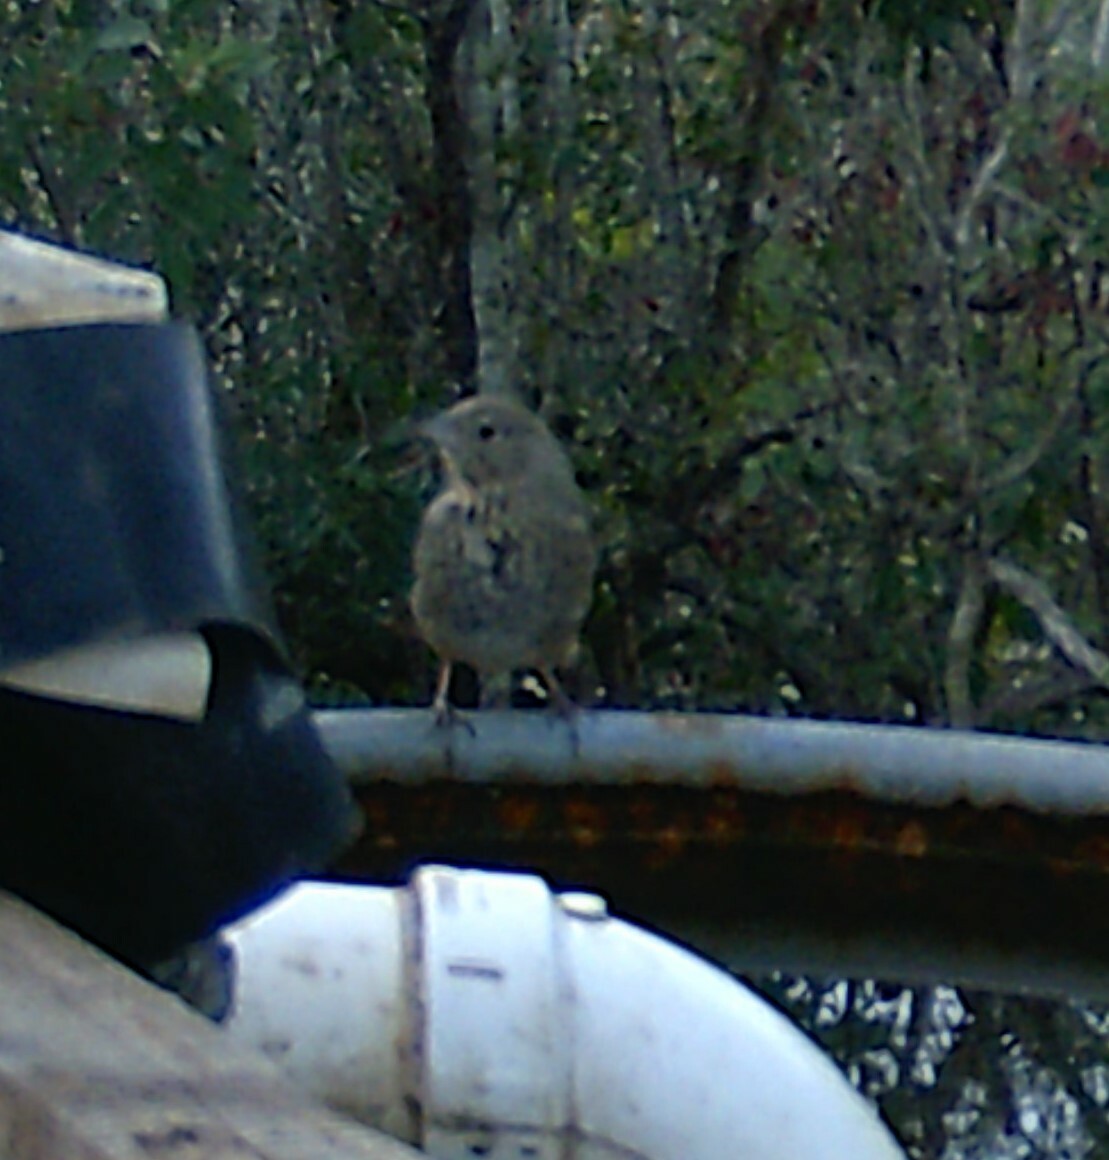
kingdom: Animalia
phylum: Chordata
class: Aves
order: Passeriformes
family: Passerellidae
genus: Melozone
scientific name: Melozone fusca
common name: Canyon towhee
